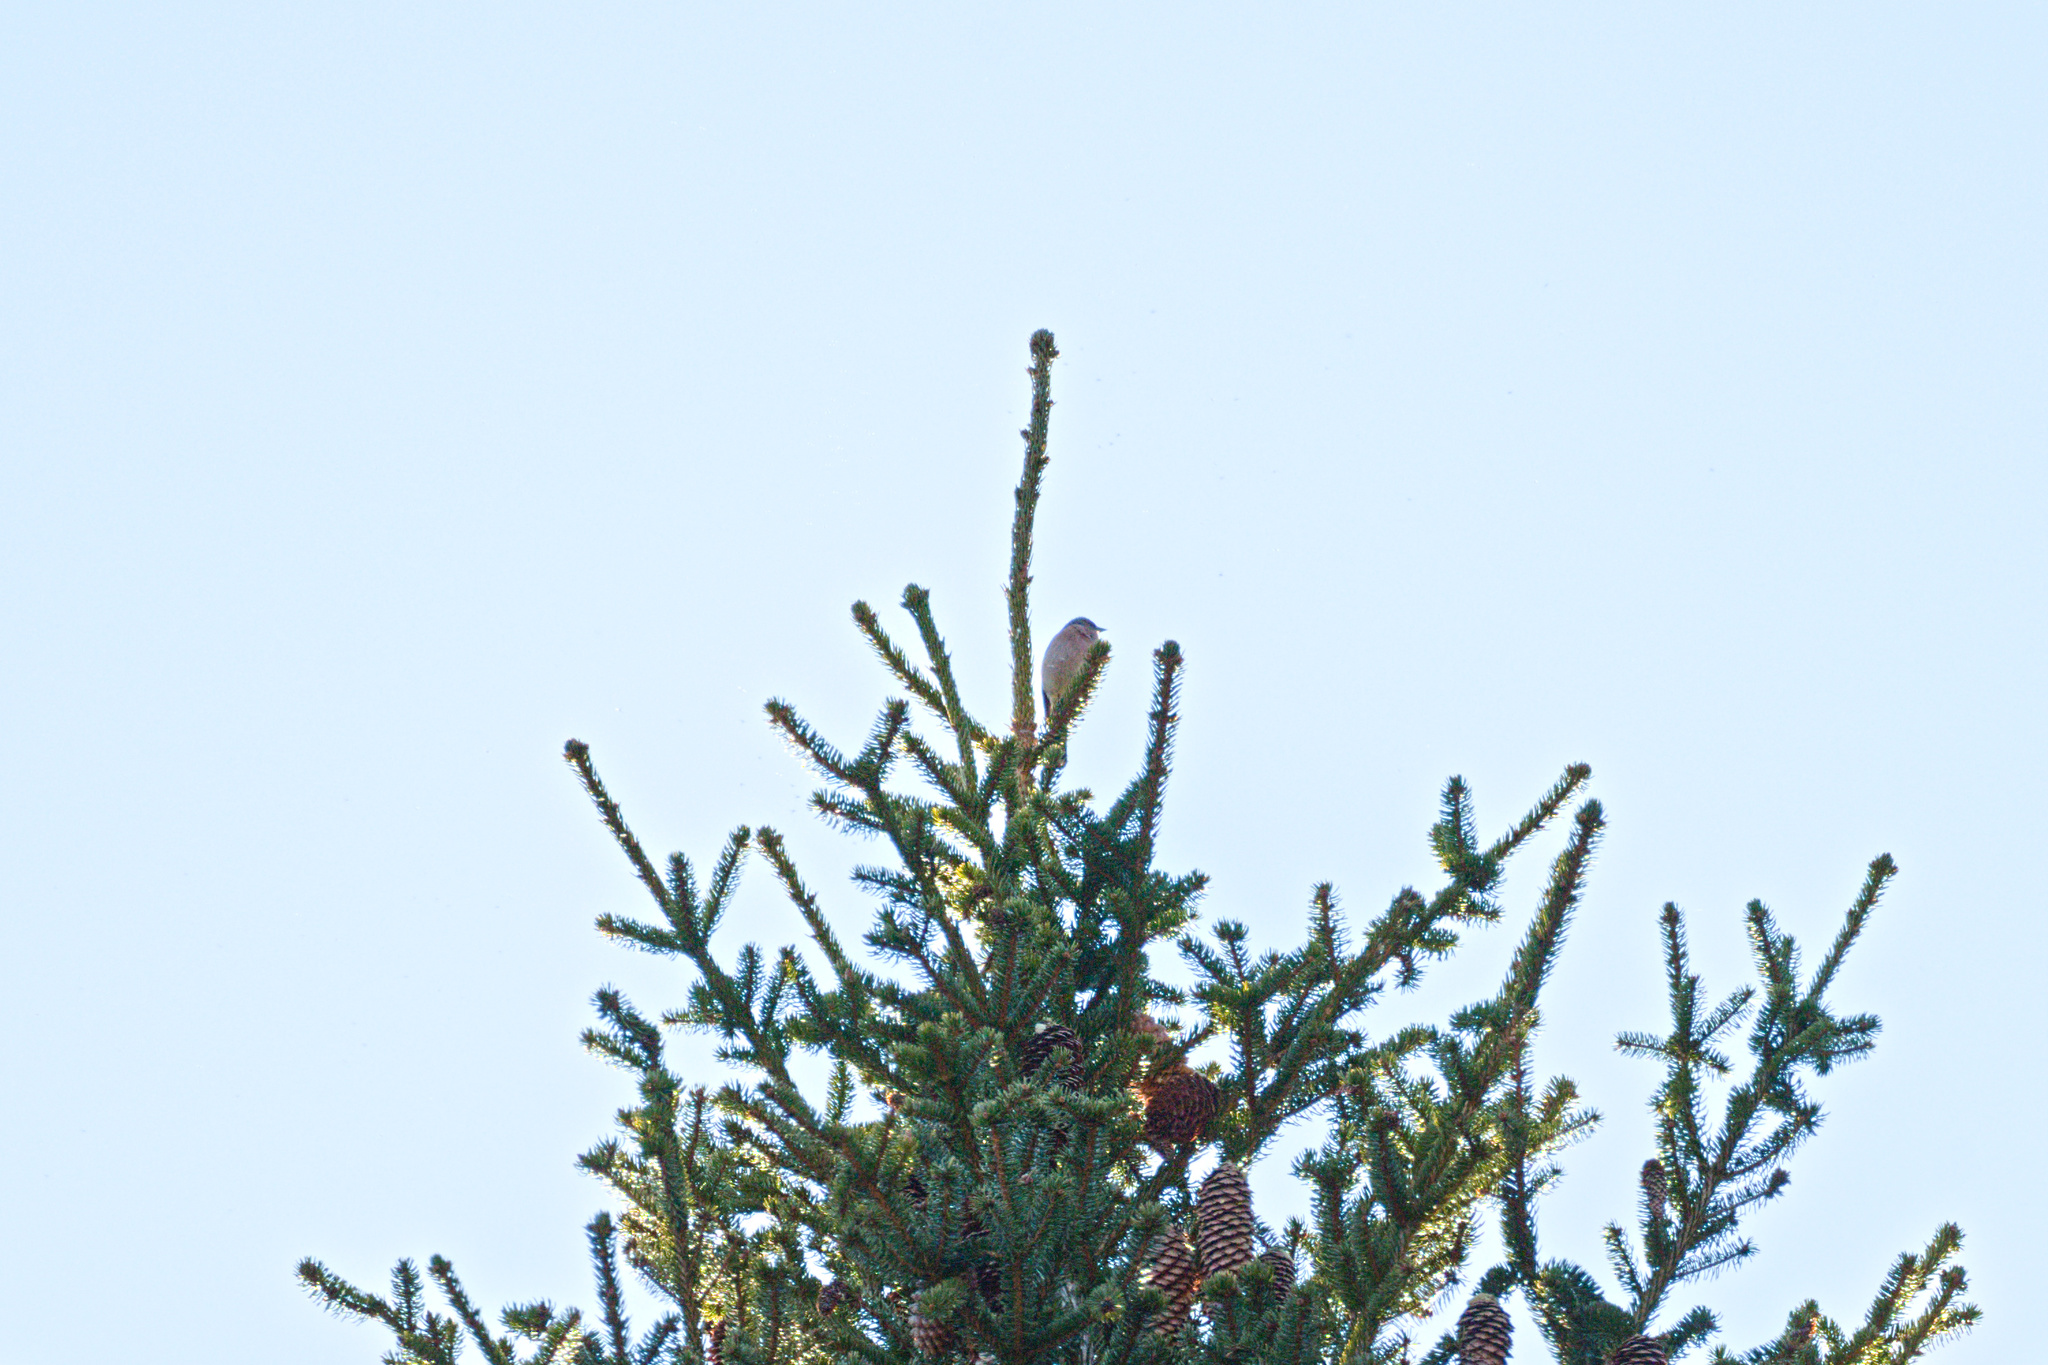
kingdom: Animalia
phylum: Chordata
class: Aves
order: Passeriformes
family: Fringillidae
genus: Fringilla
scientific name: Fringilla coelebs
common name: Common chaffinch
